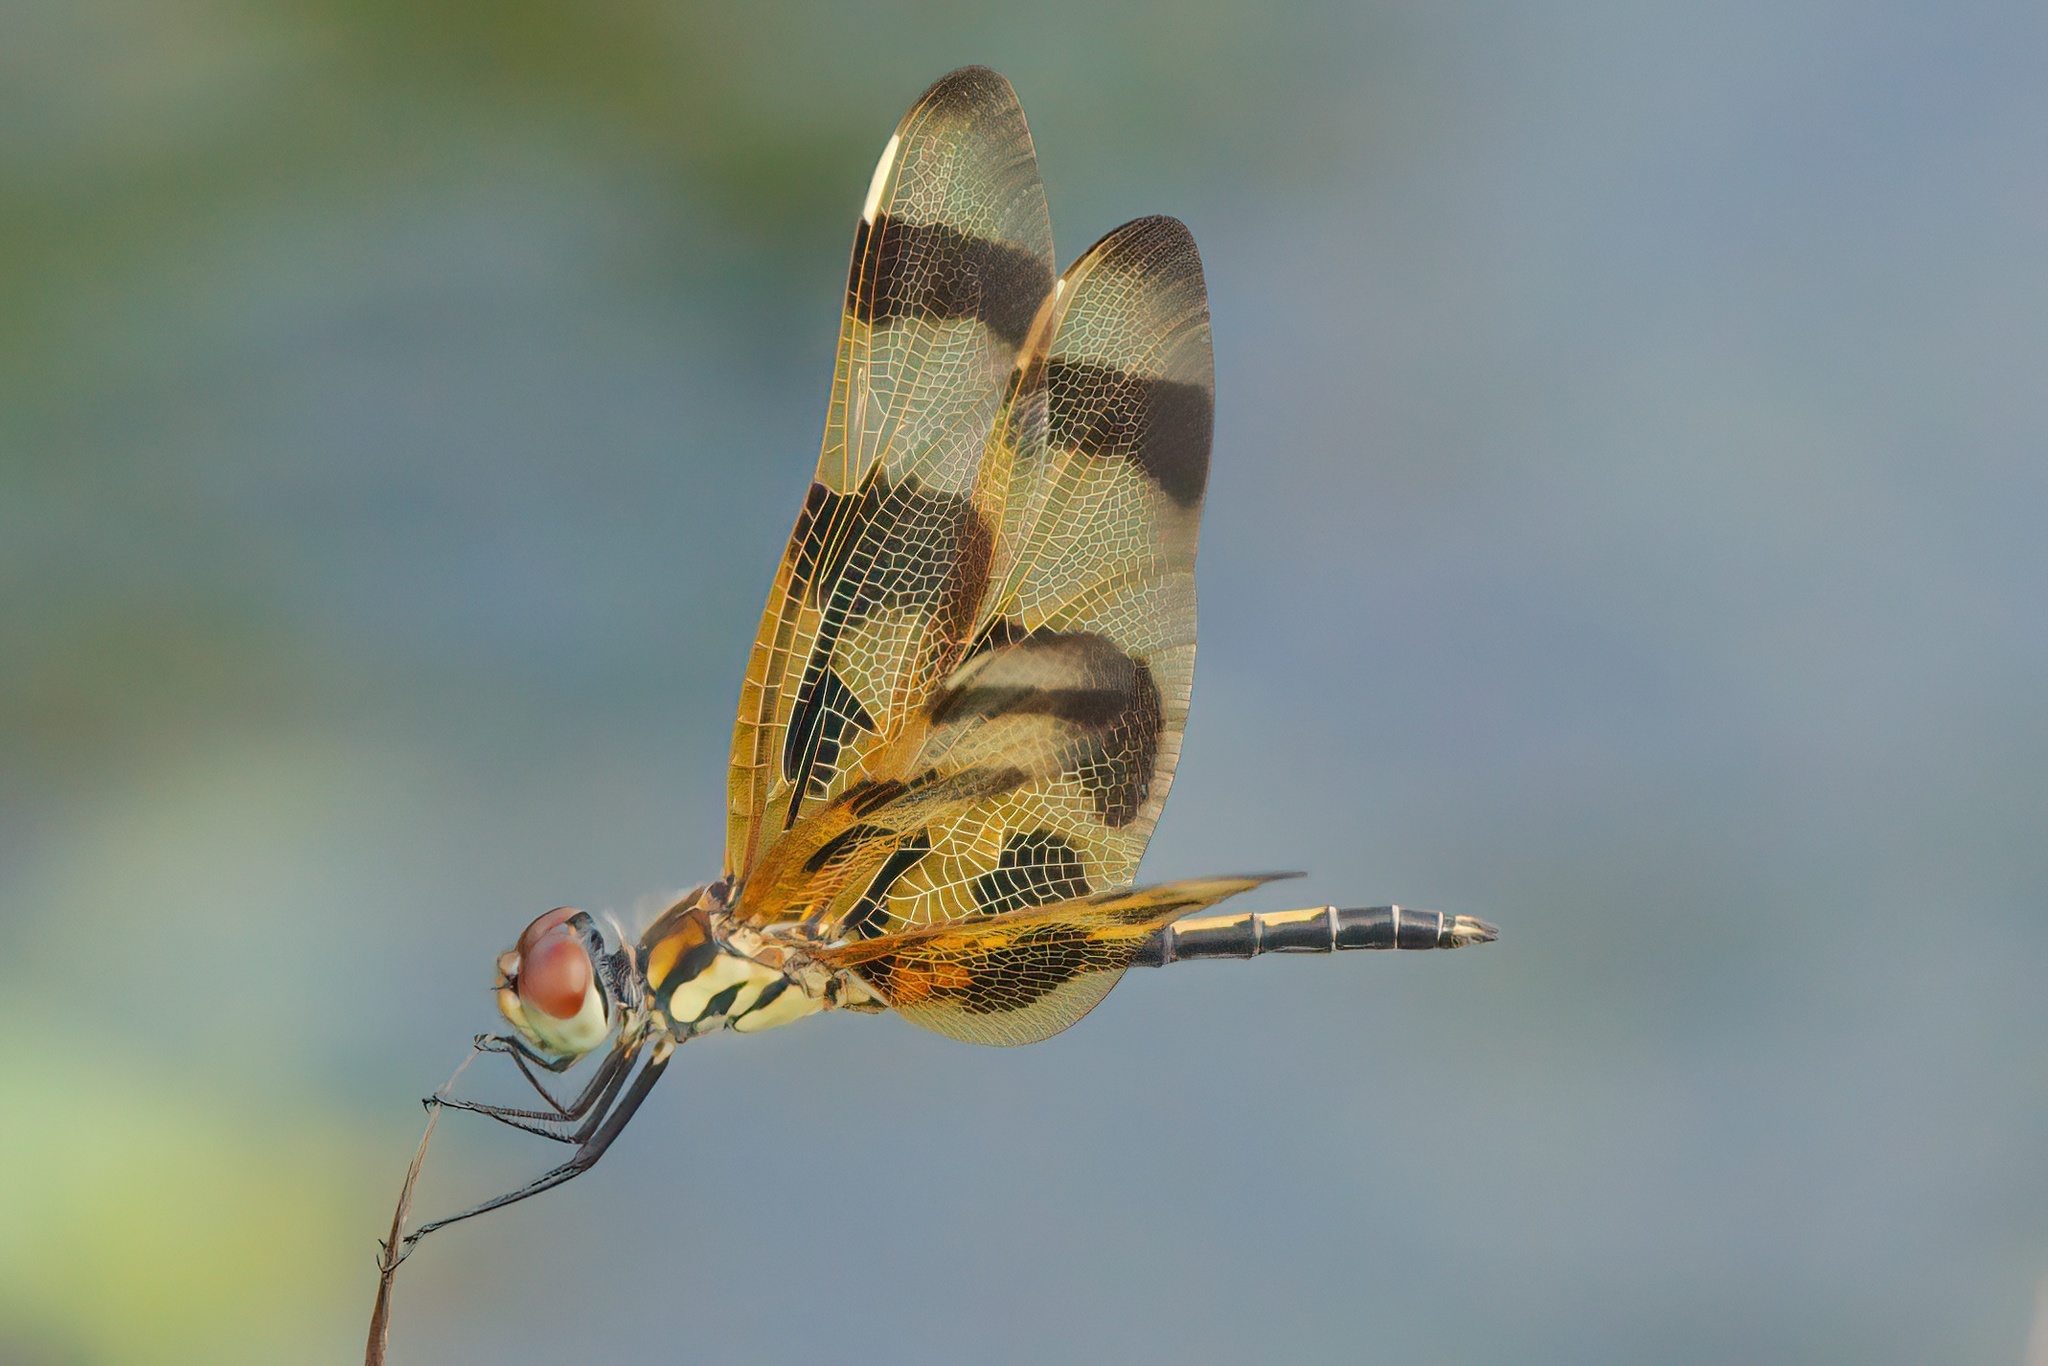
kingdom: Animalia
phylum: Arthropoda
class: Insecta
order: Odonata
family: Libellulidae
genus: Celithemis
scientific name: Celithemis eponina
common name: Halloween pennant
